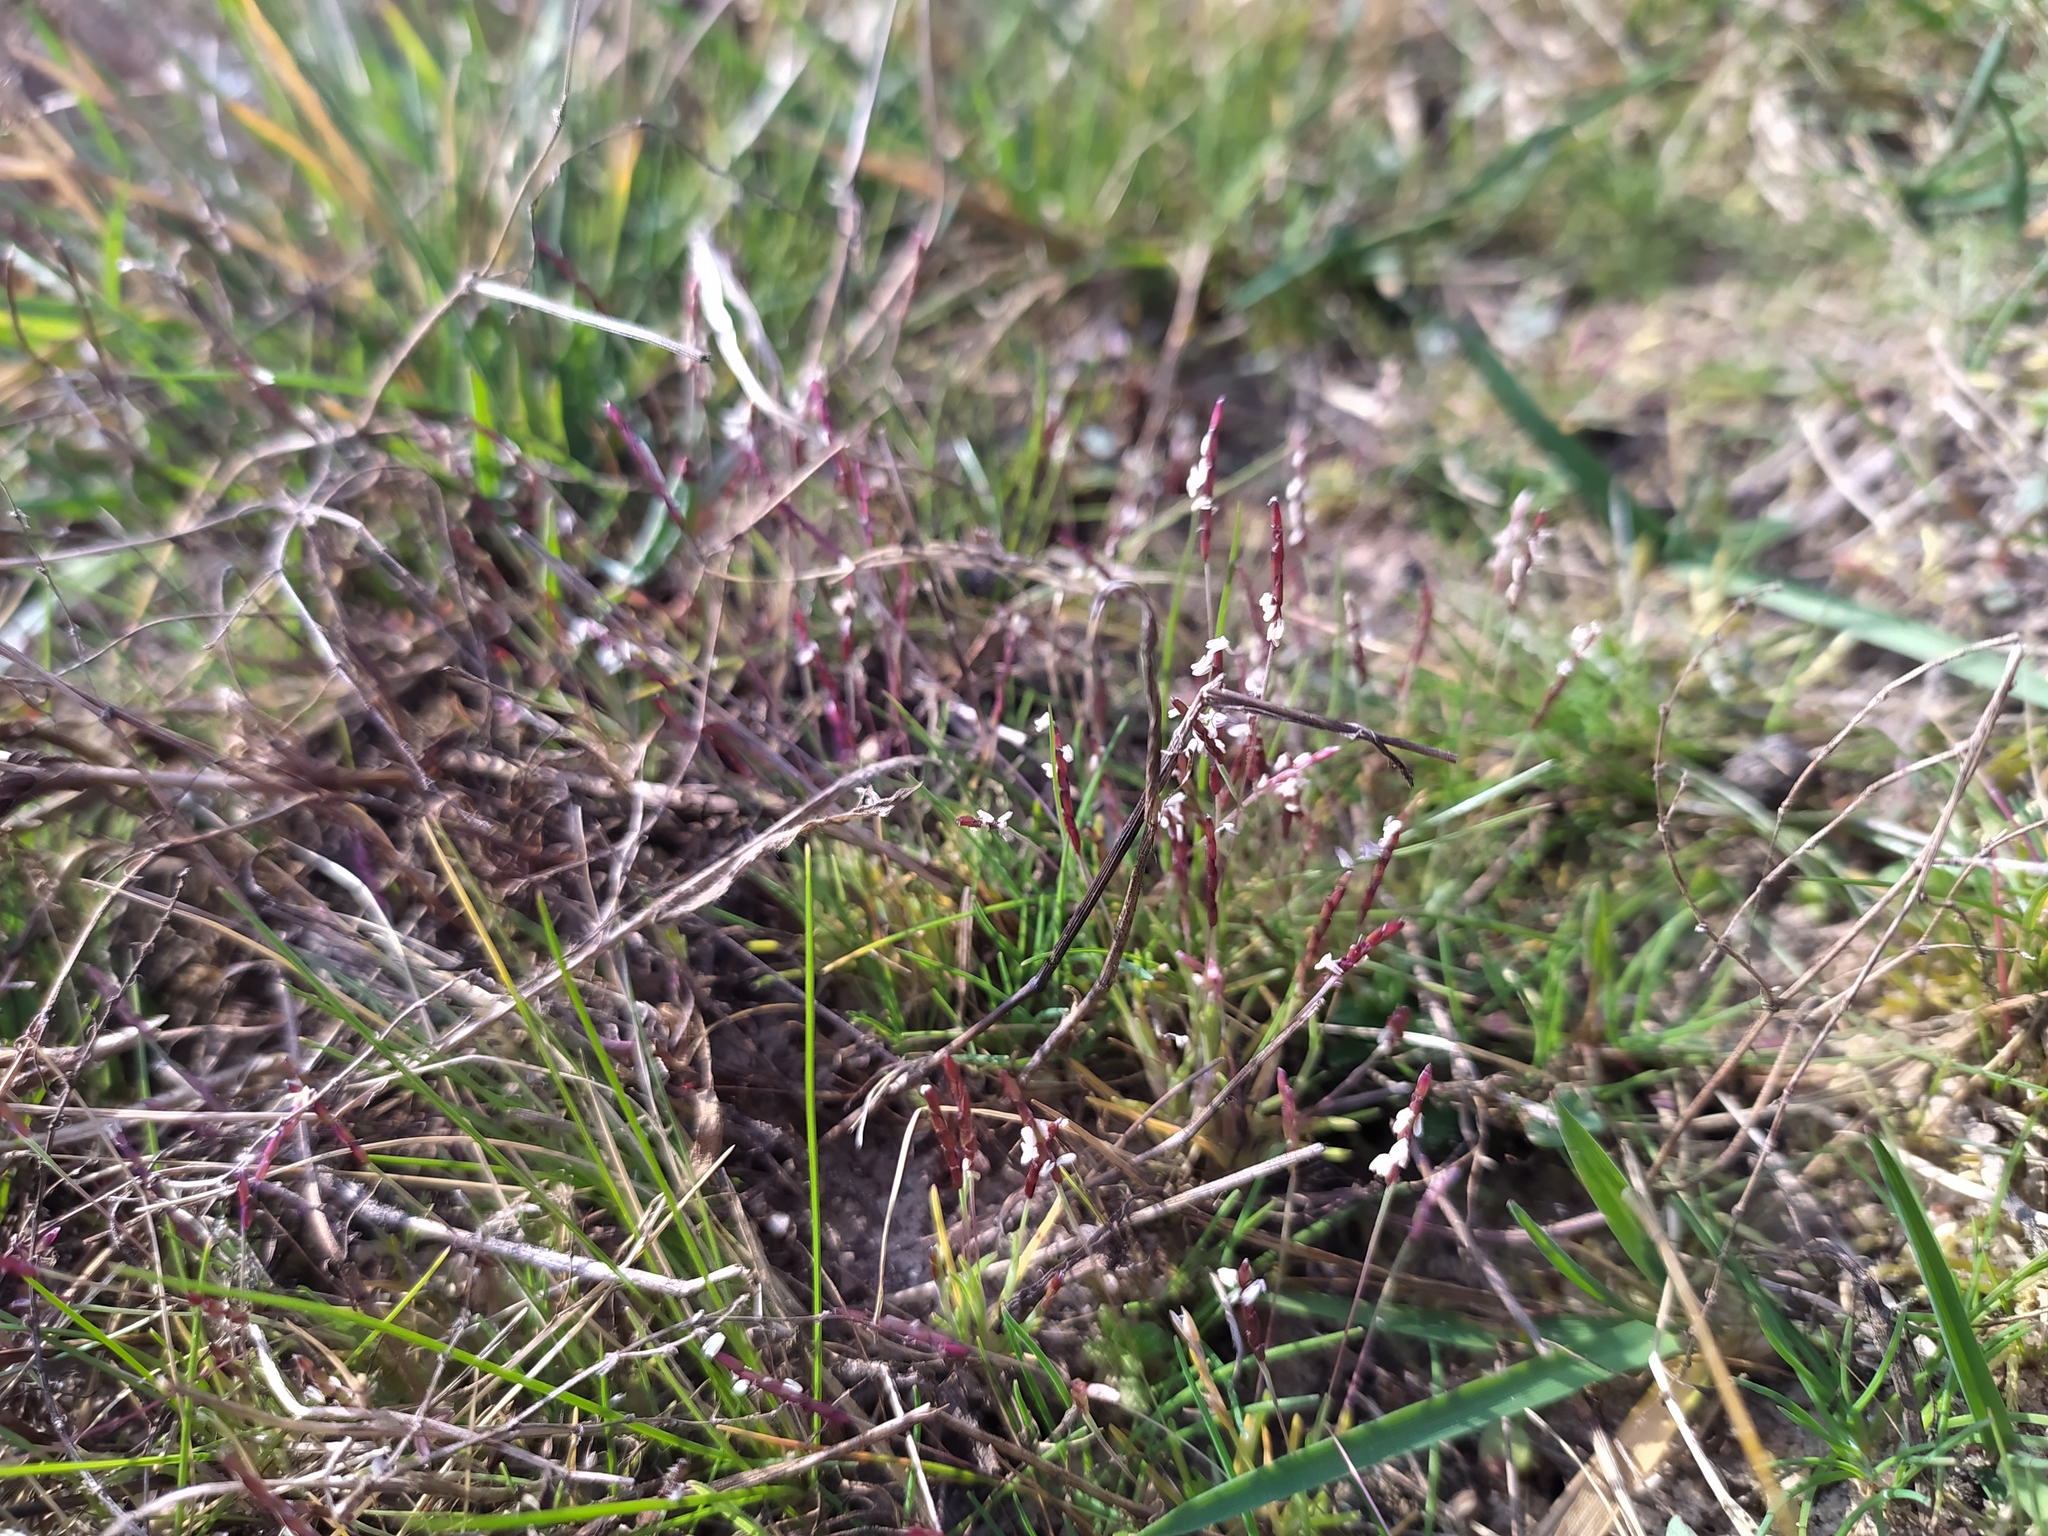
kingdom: Plantae
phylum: Tracheophyta
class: Liliopsida
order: Poales
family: Poaceae
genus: Mibora
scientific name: Mibora minima
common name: Early sand-grass
